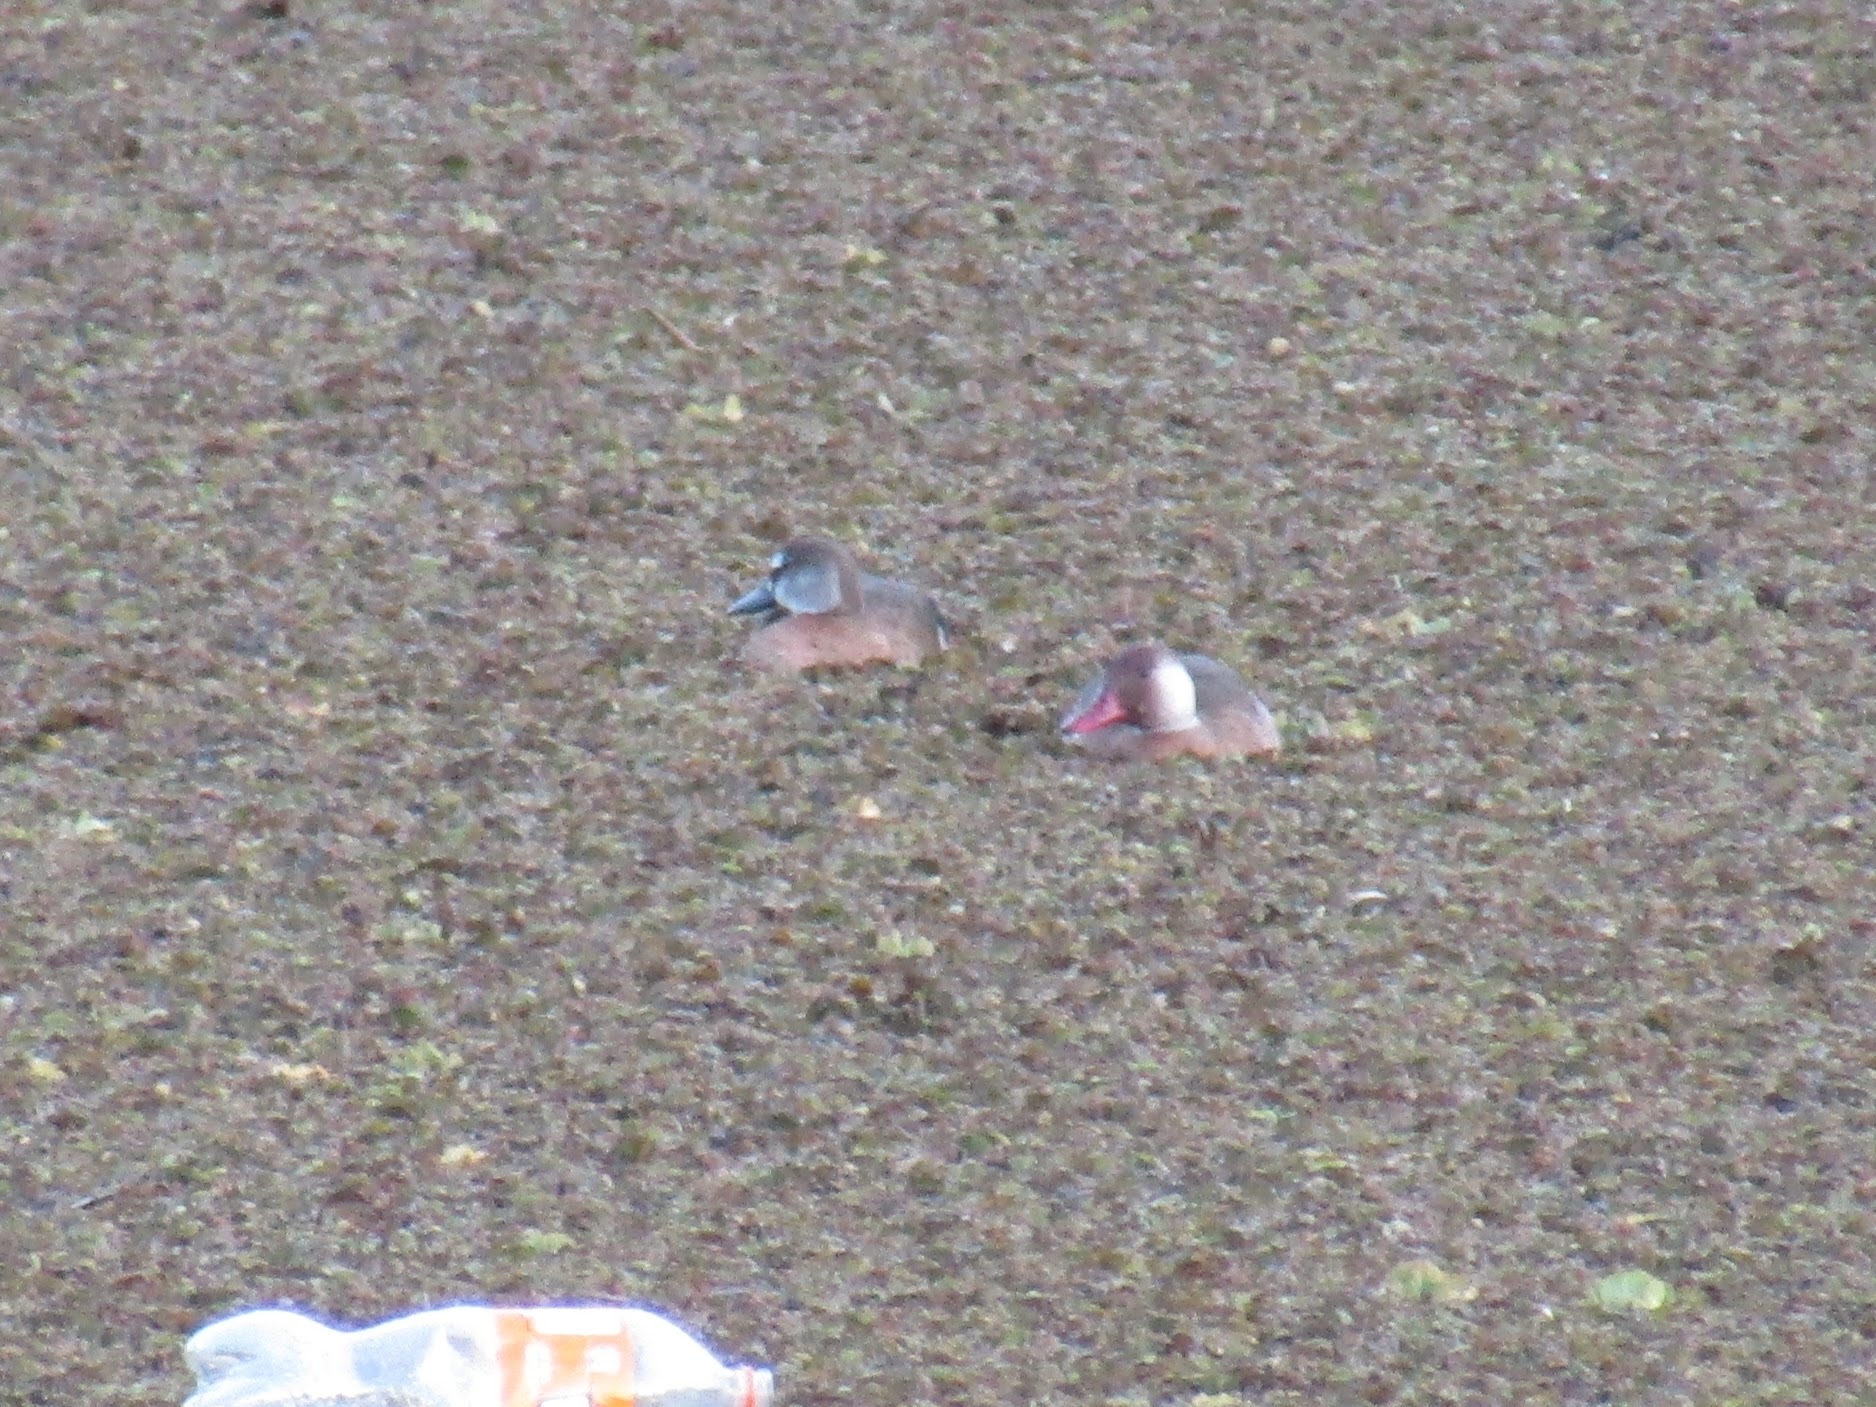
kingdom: Animalia
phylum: Chordata
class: Aves
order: Anseriformes
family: Anatidae
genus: Amazonetta
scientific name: Amazonetta brasiliensis
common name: Brazilian teal
